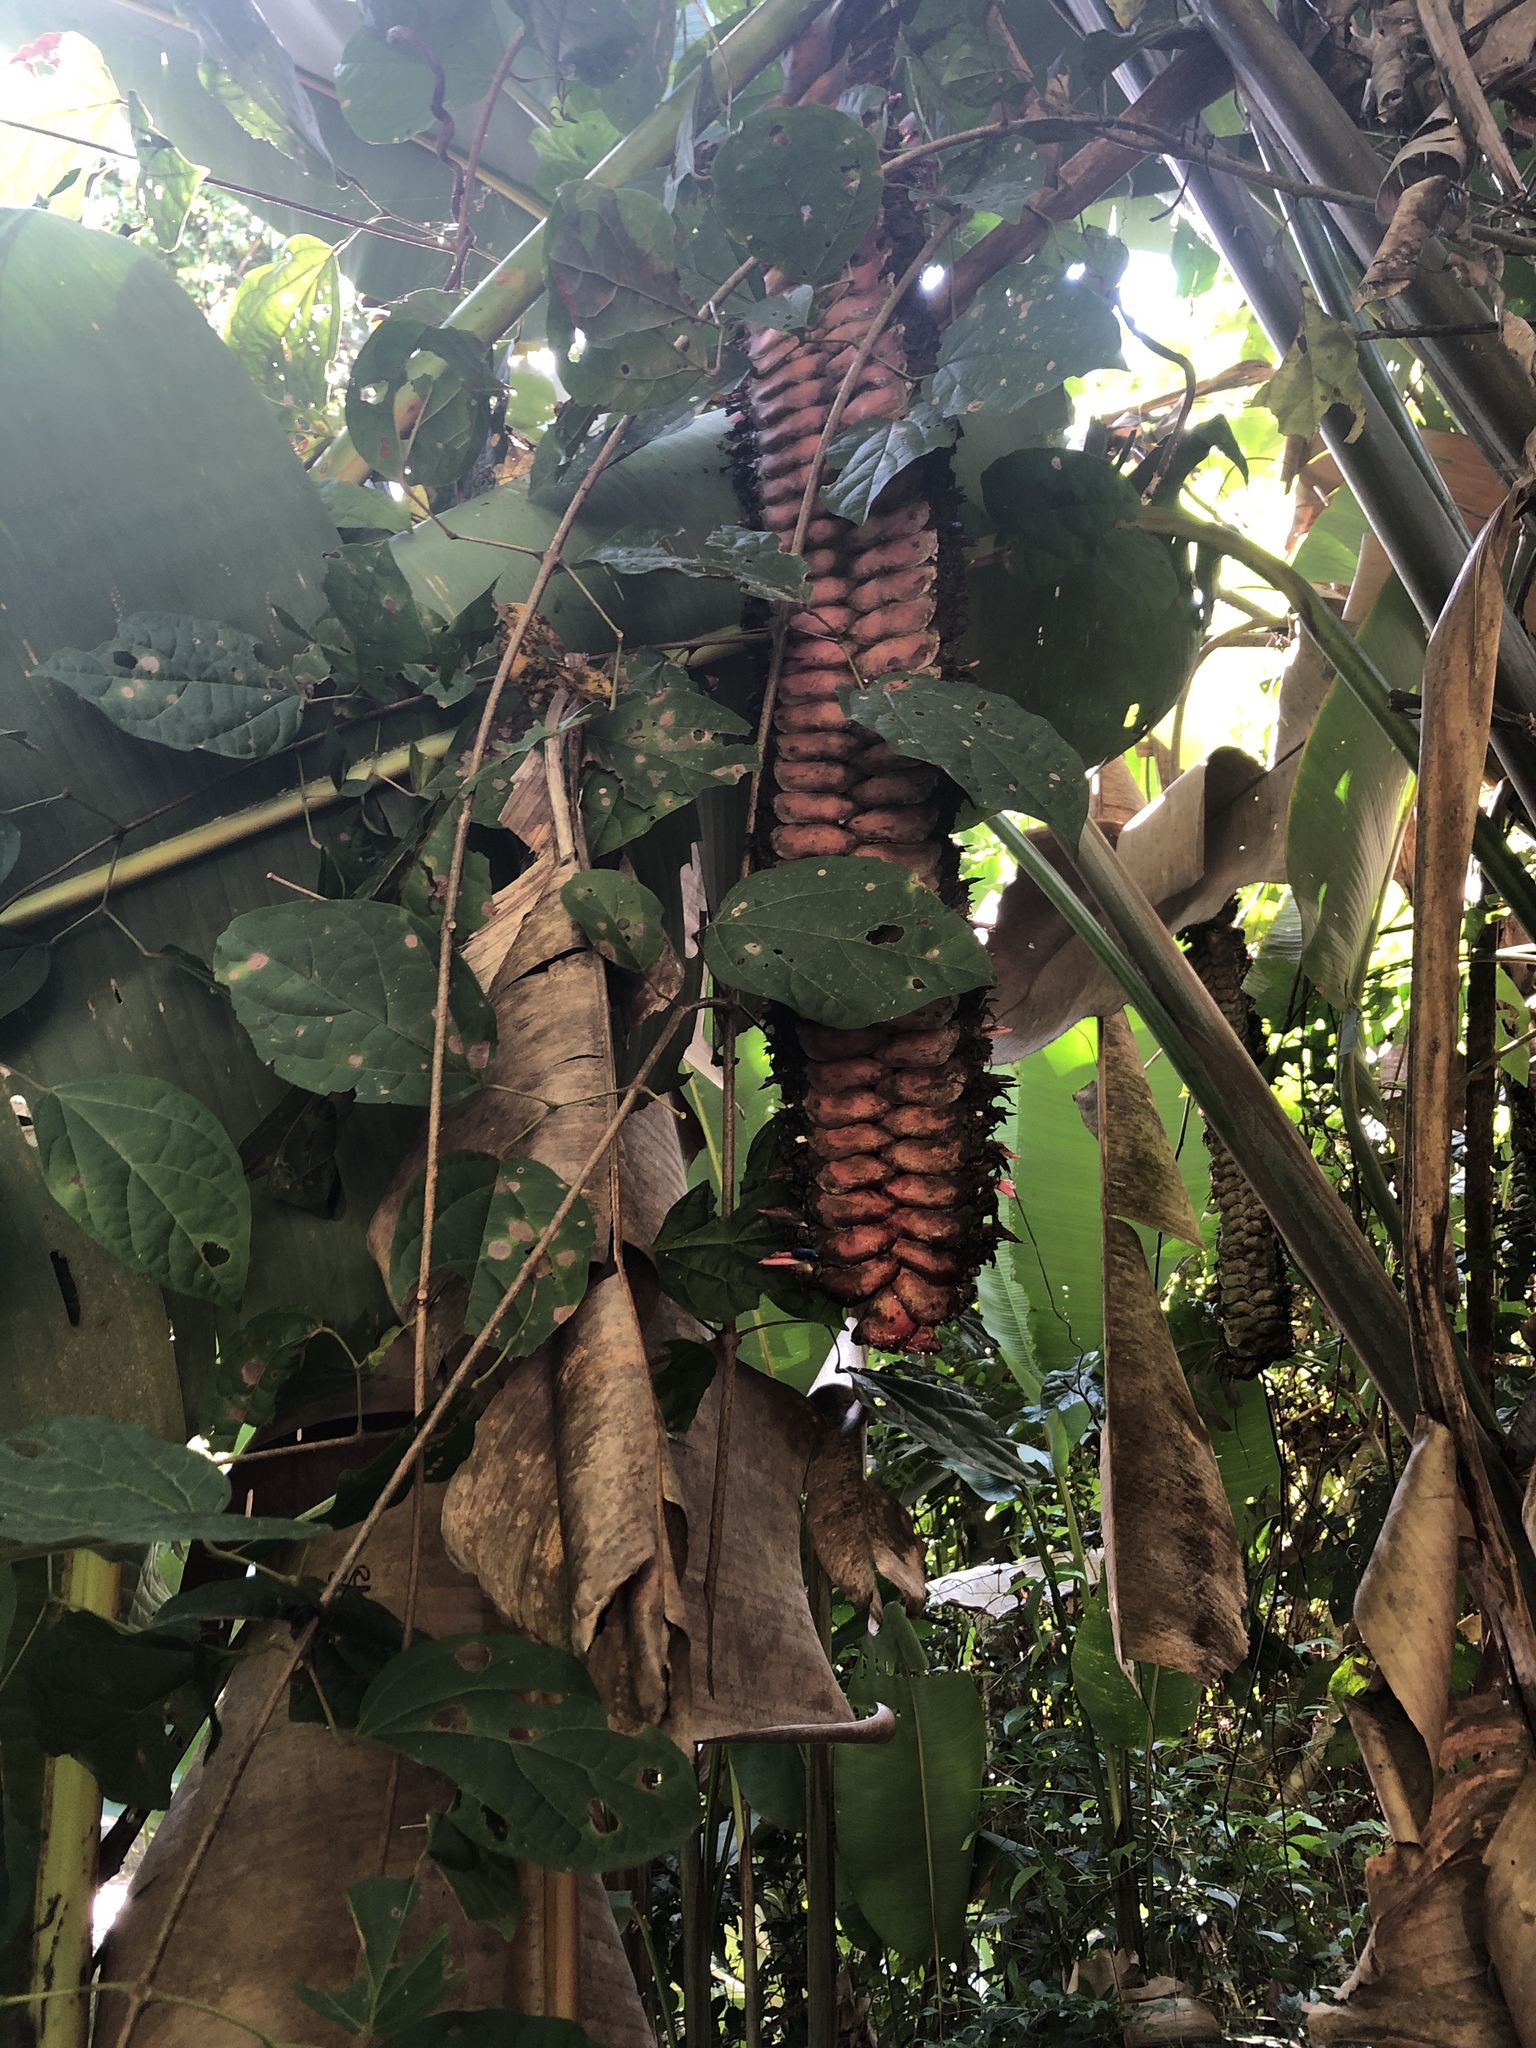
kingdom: Plantae
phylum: Tracheophyta
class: Liliopsida
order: Zingiberales
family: Heliconiaceae
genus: Heliconia
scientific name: Heliconia mariae
